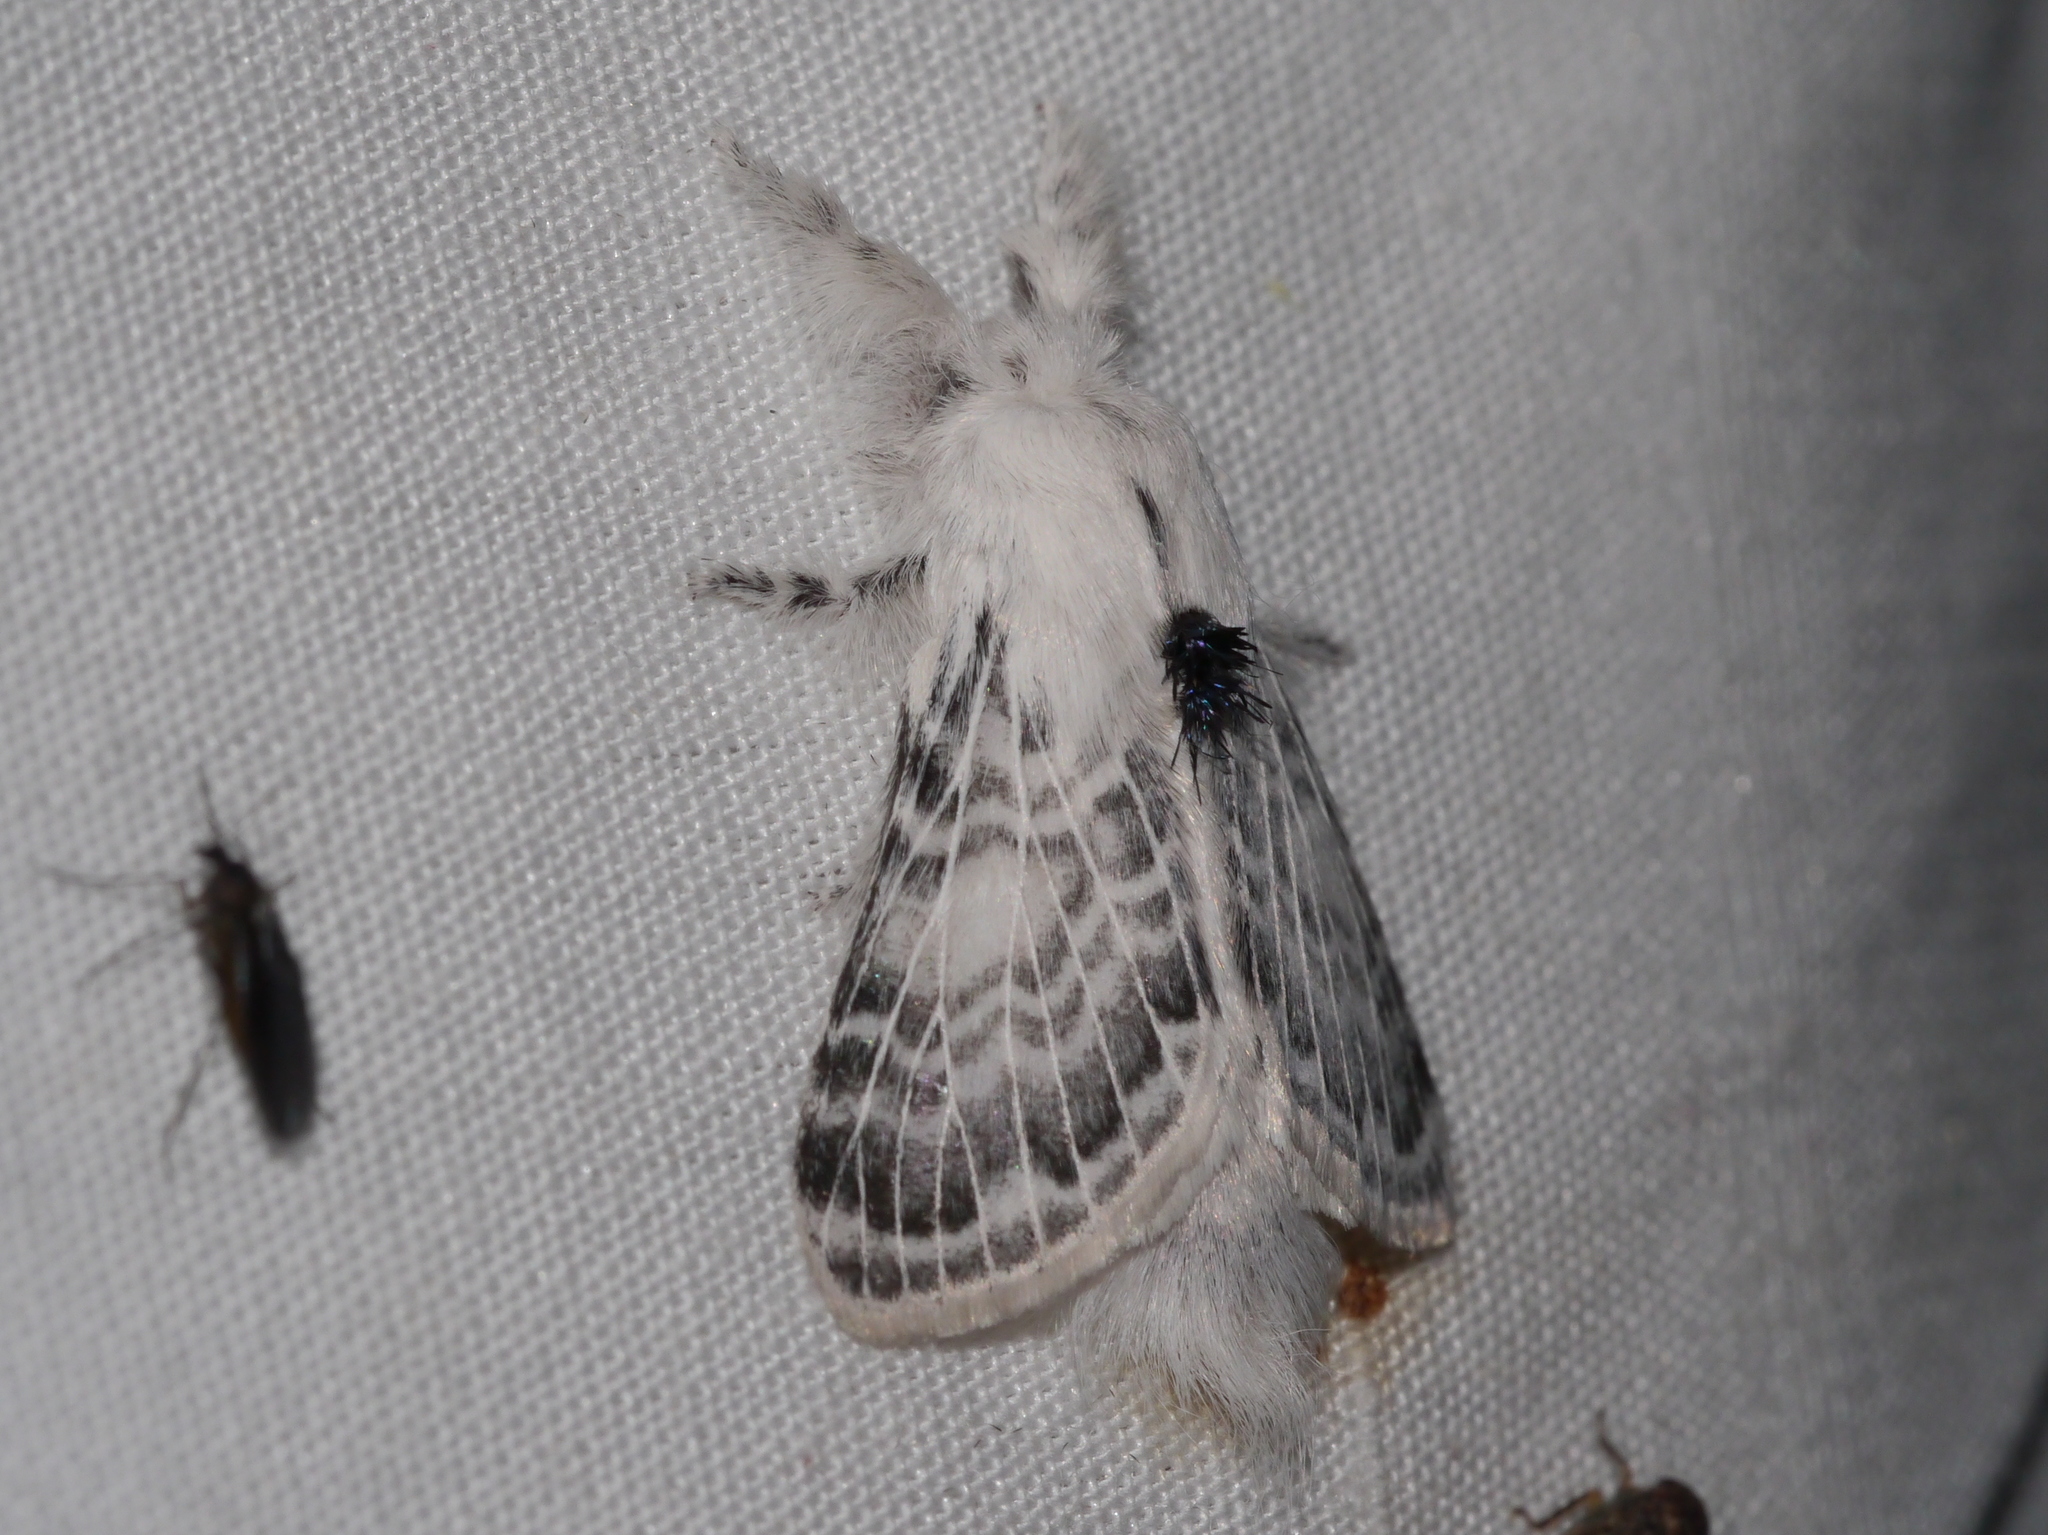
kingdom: Animalia
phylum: Arthropoda
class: Insecta
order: Lepidoptera
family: Lasiocampidae
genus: Apotolype
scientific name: Apotolype brevicrista
